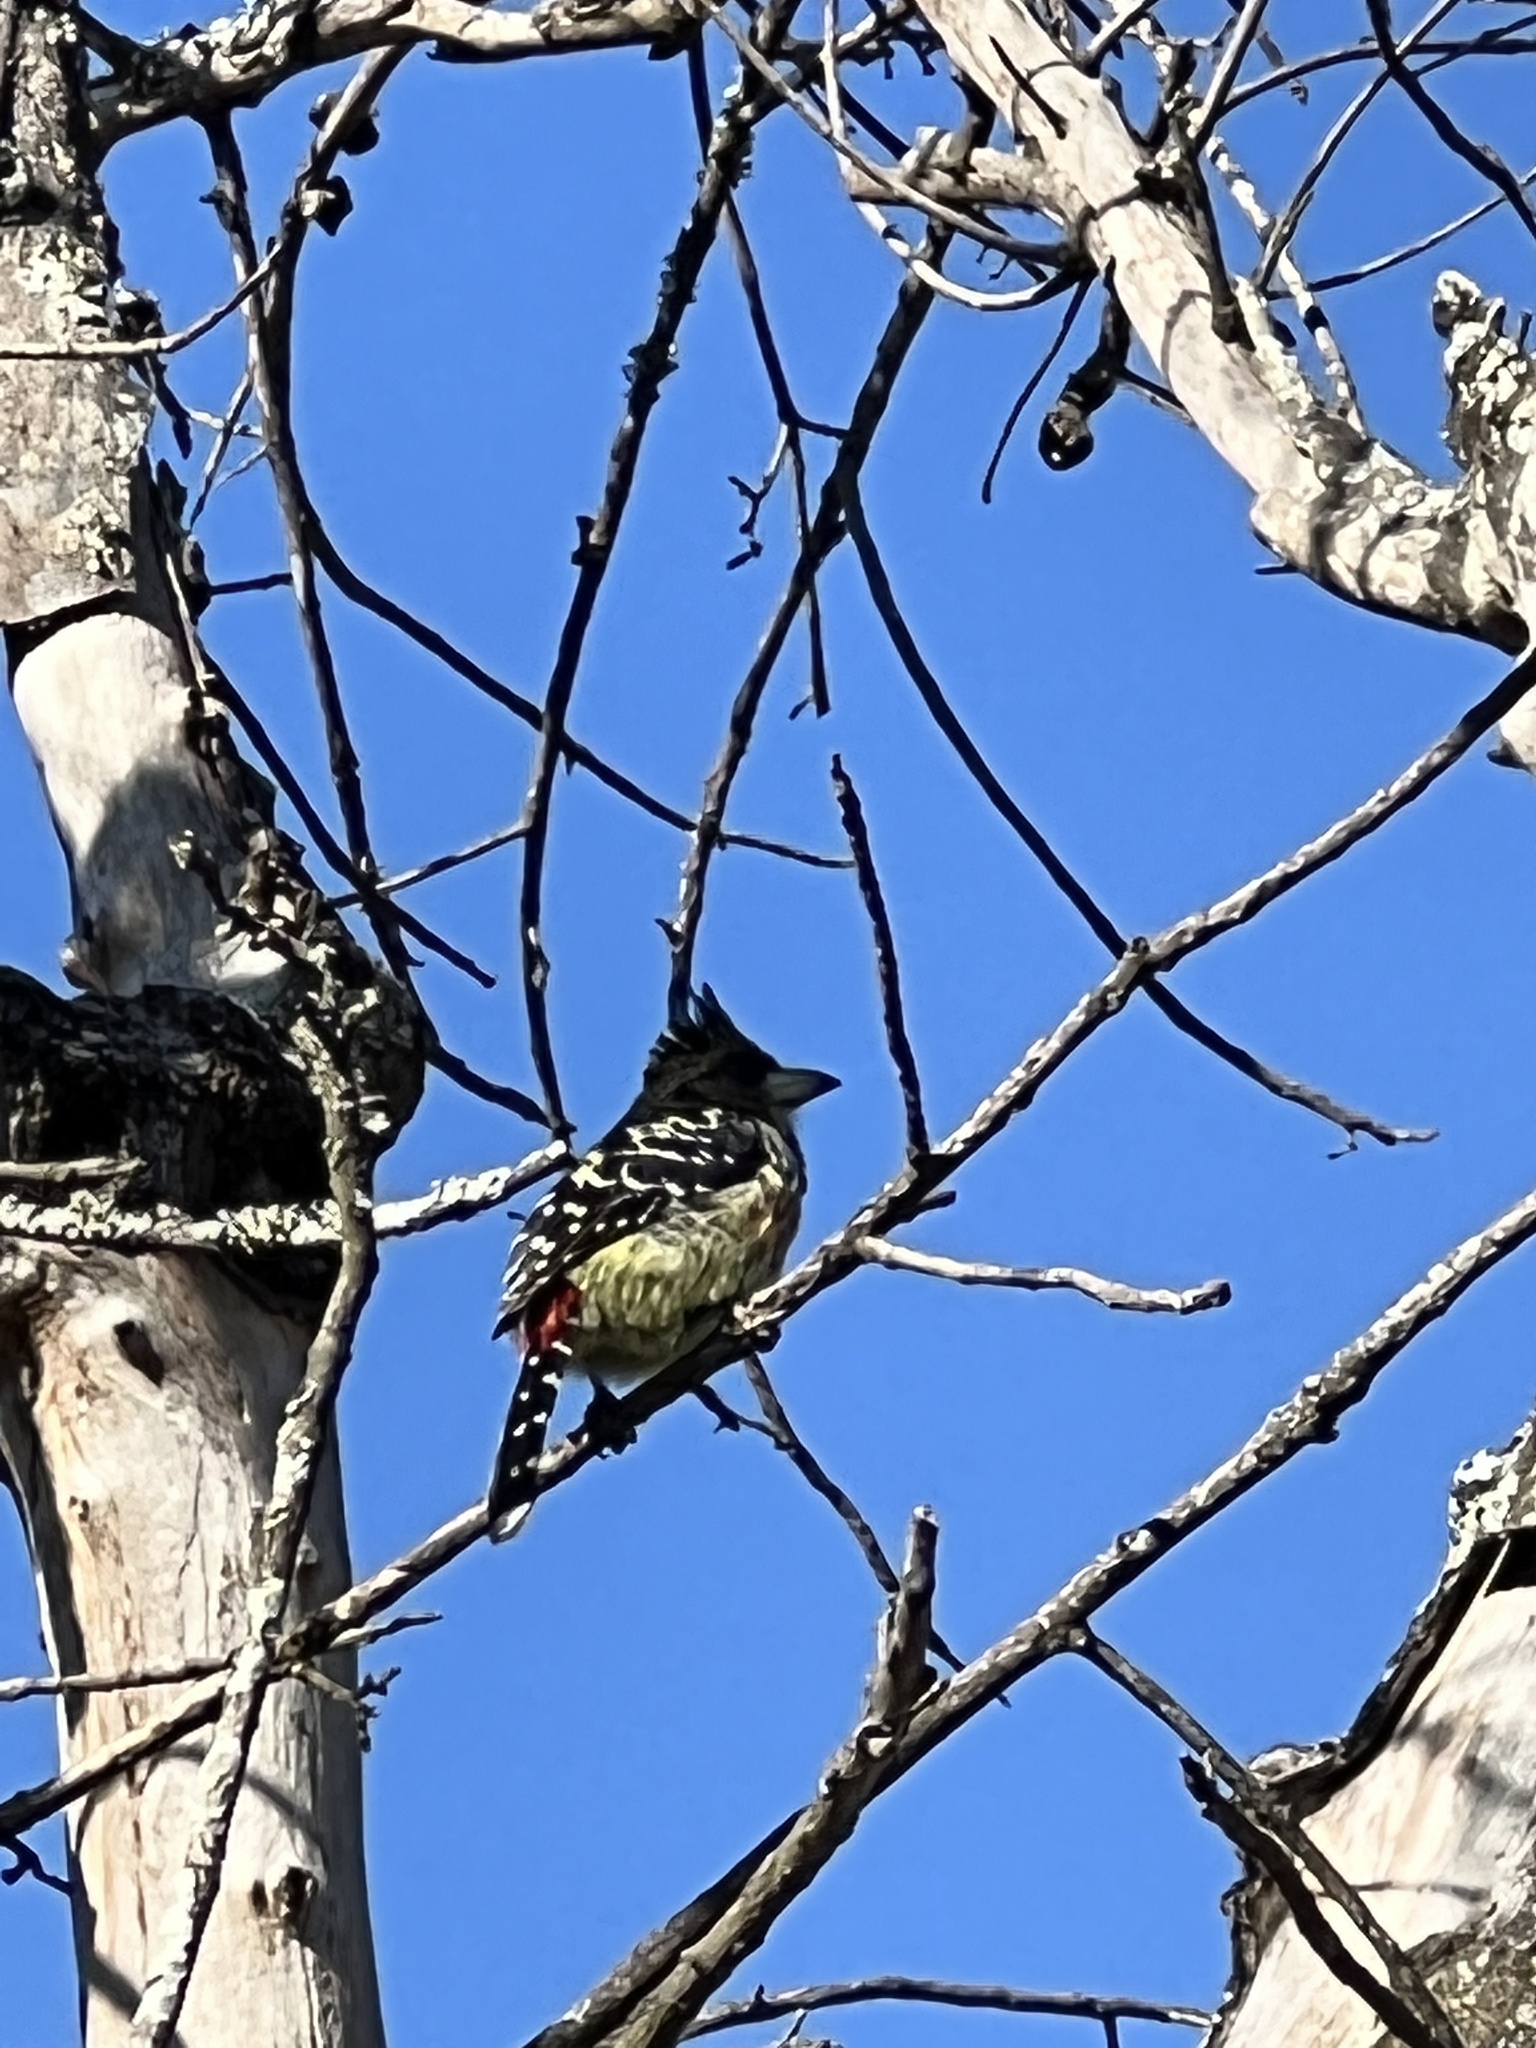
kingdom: Animalia
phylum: Chordata
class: Aves
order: Piciformes
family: Lybiidae
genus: Trachyphonus
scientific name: Trachyphonus vaillantii
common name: Crested barbet
